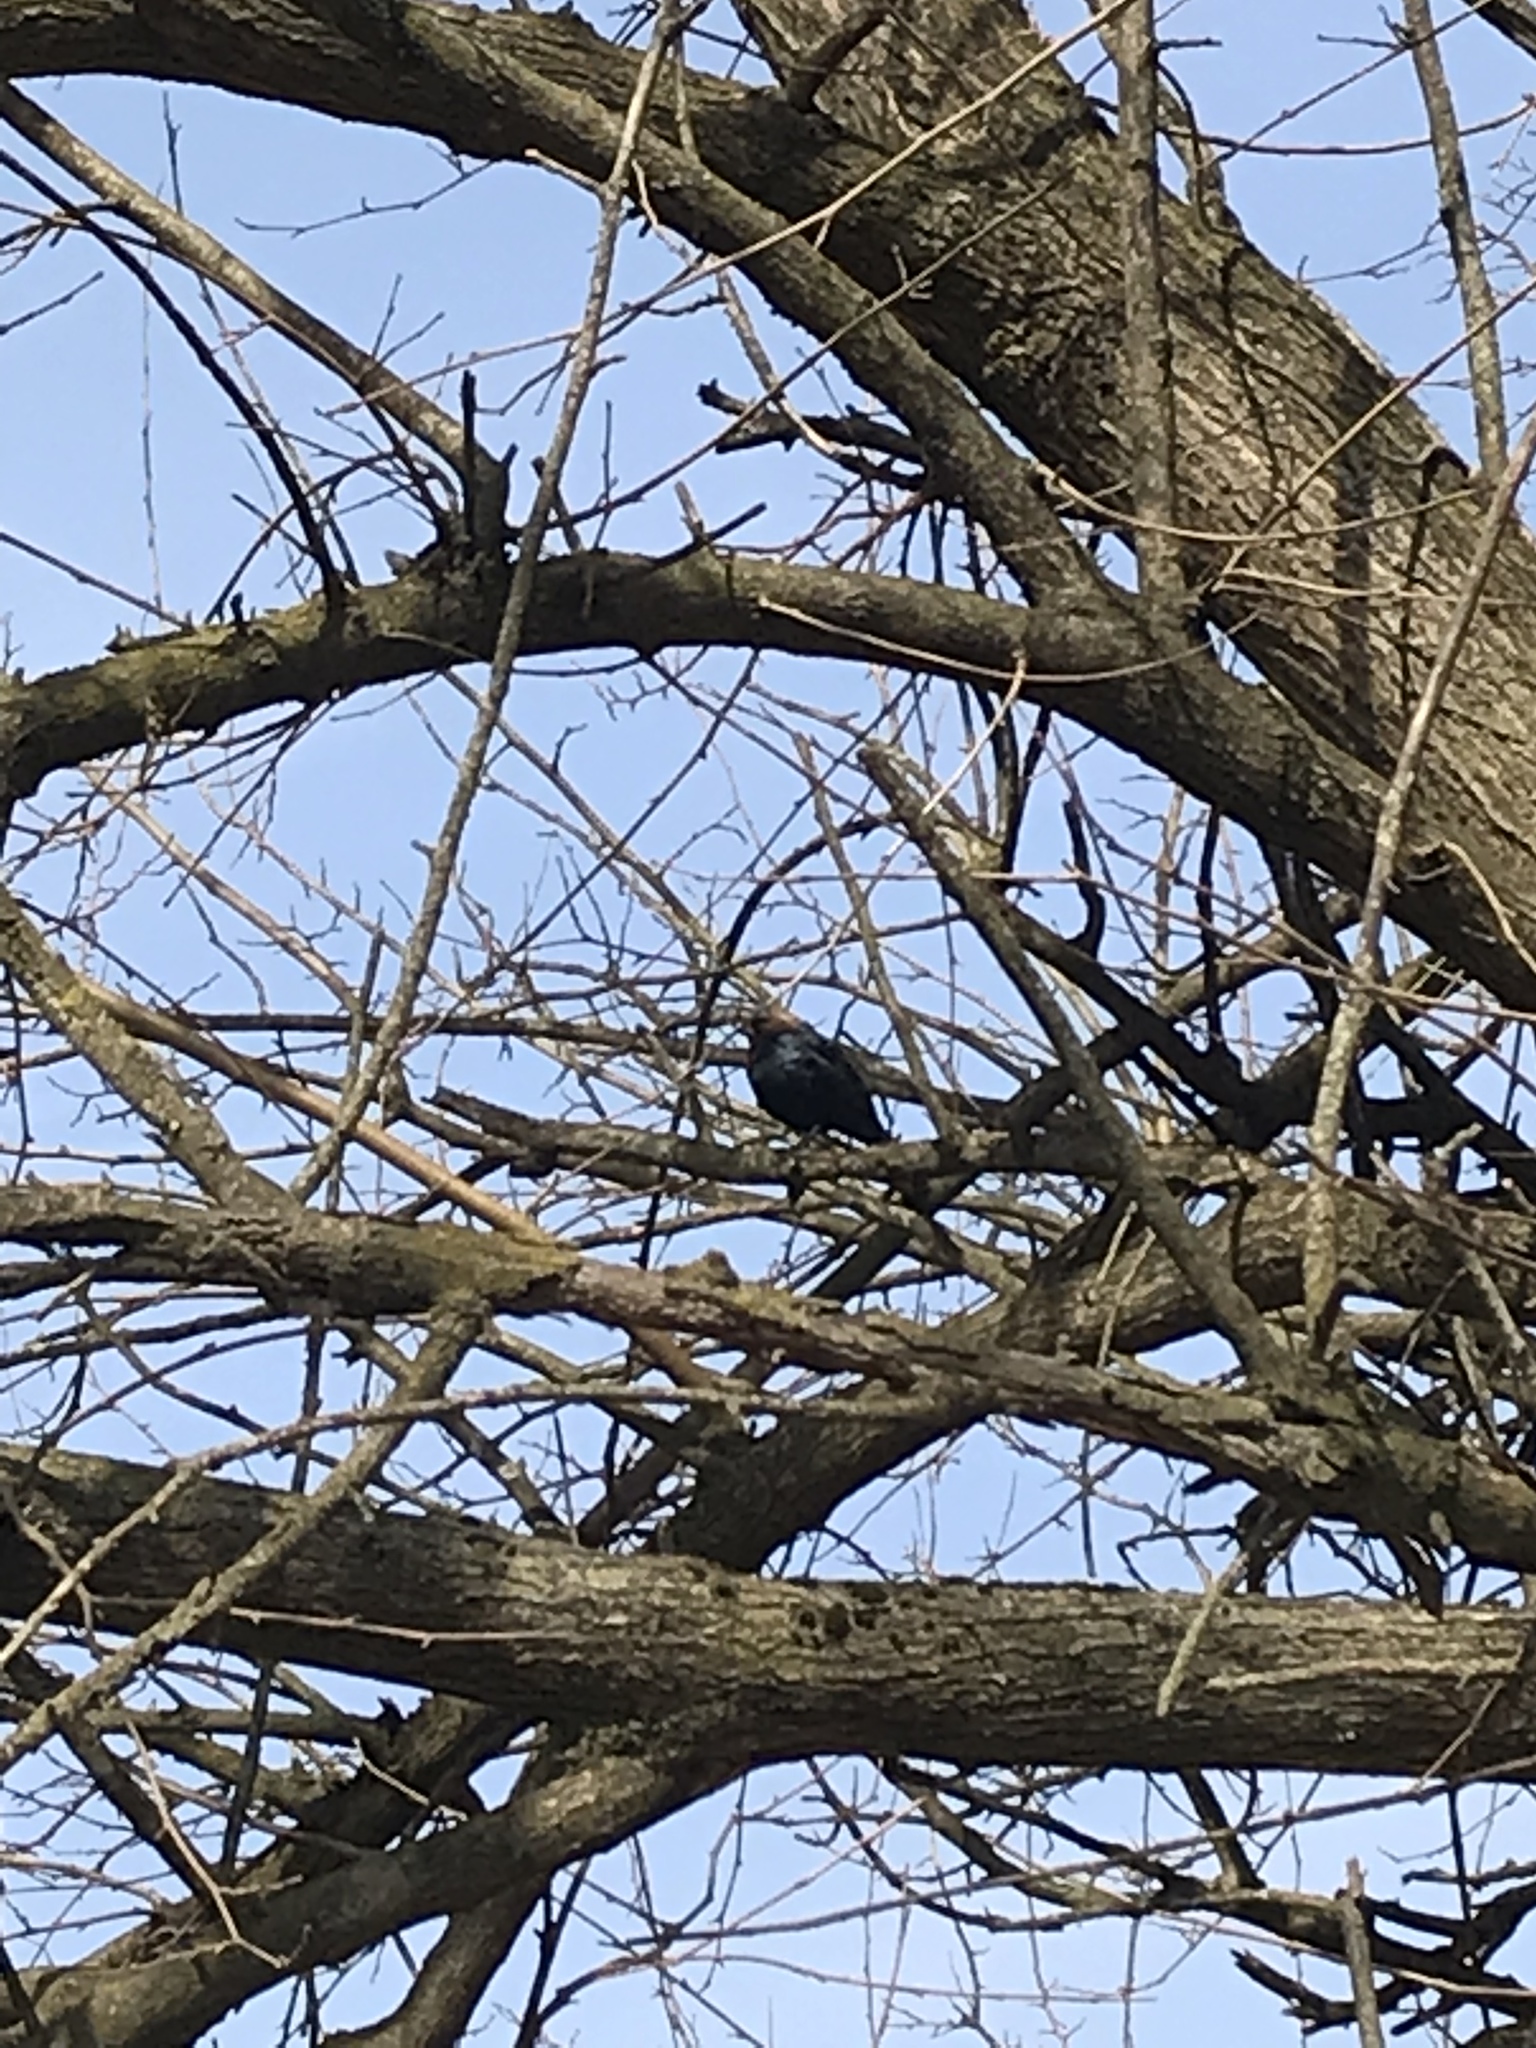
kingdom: Animalia
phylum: Chordata
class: Aves
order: Passeriformes
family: Icteridae
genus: Molothrus
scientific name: Molothrus ater
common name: Brown-headed cowbird
